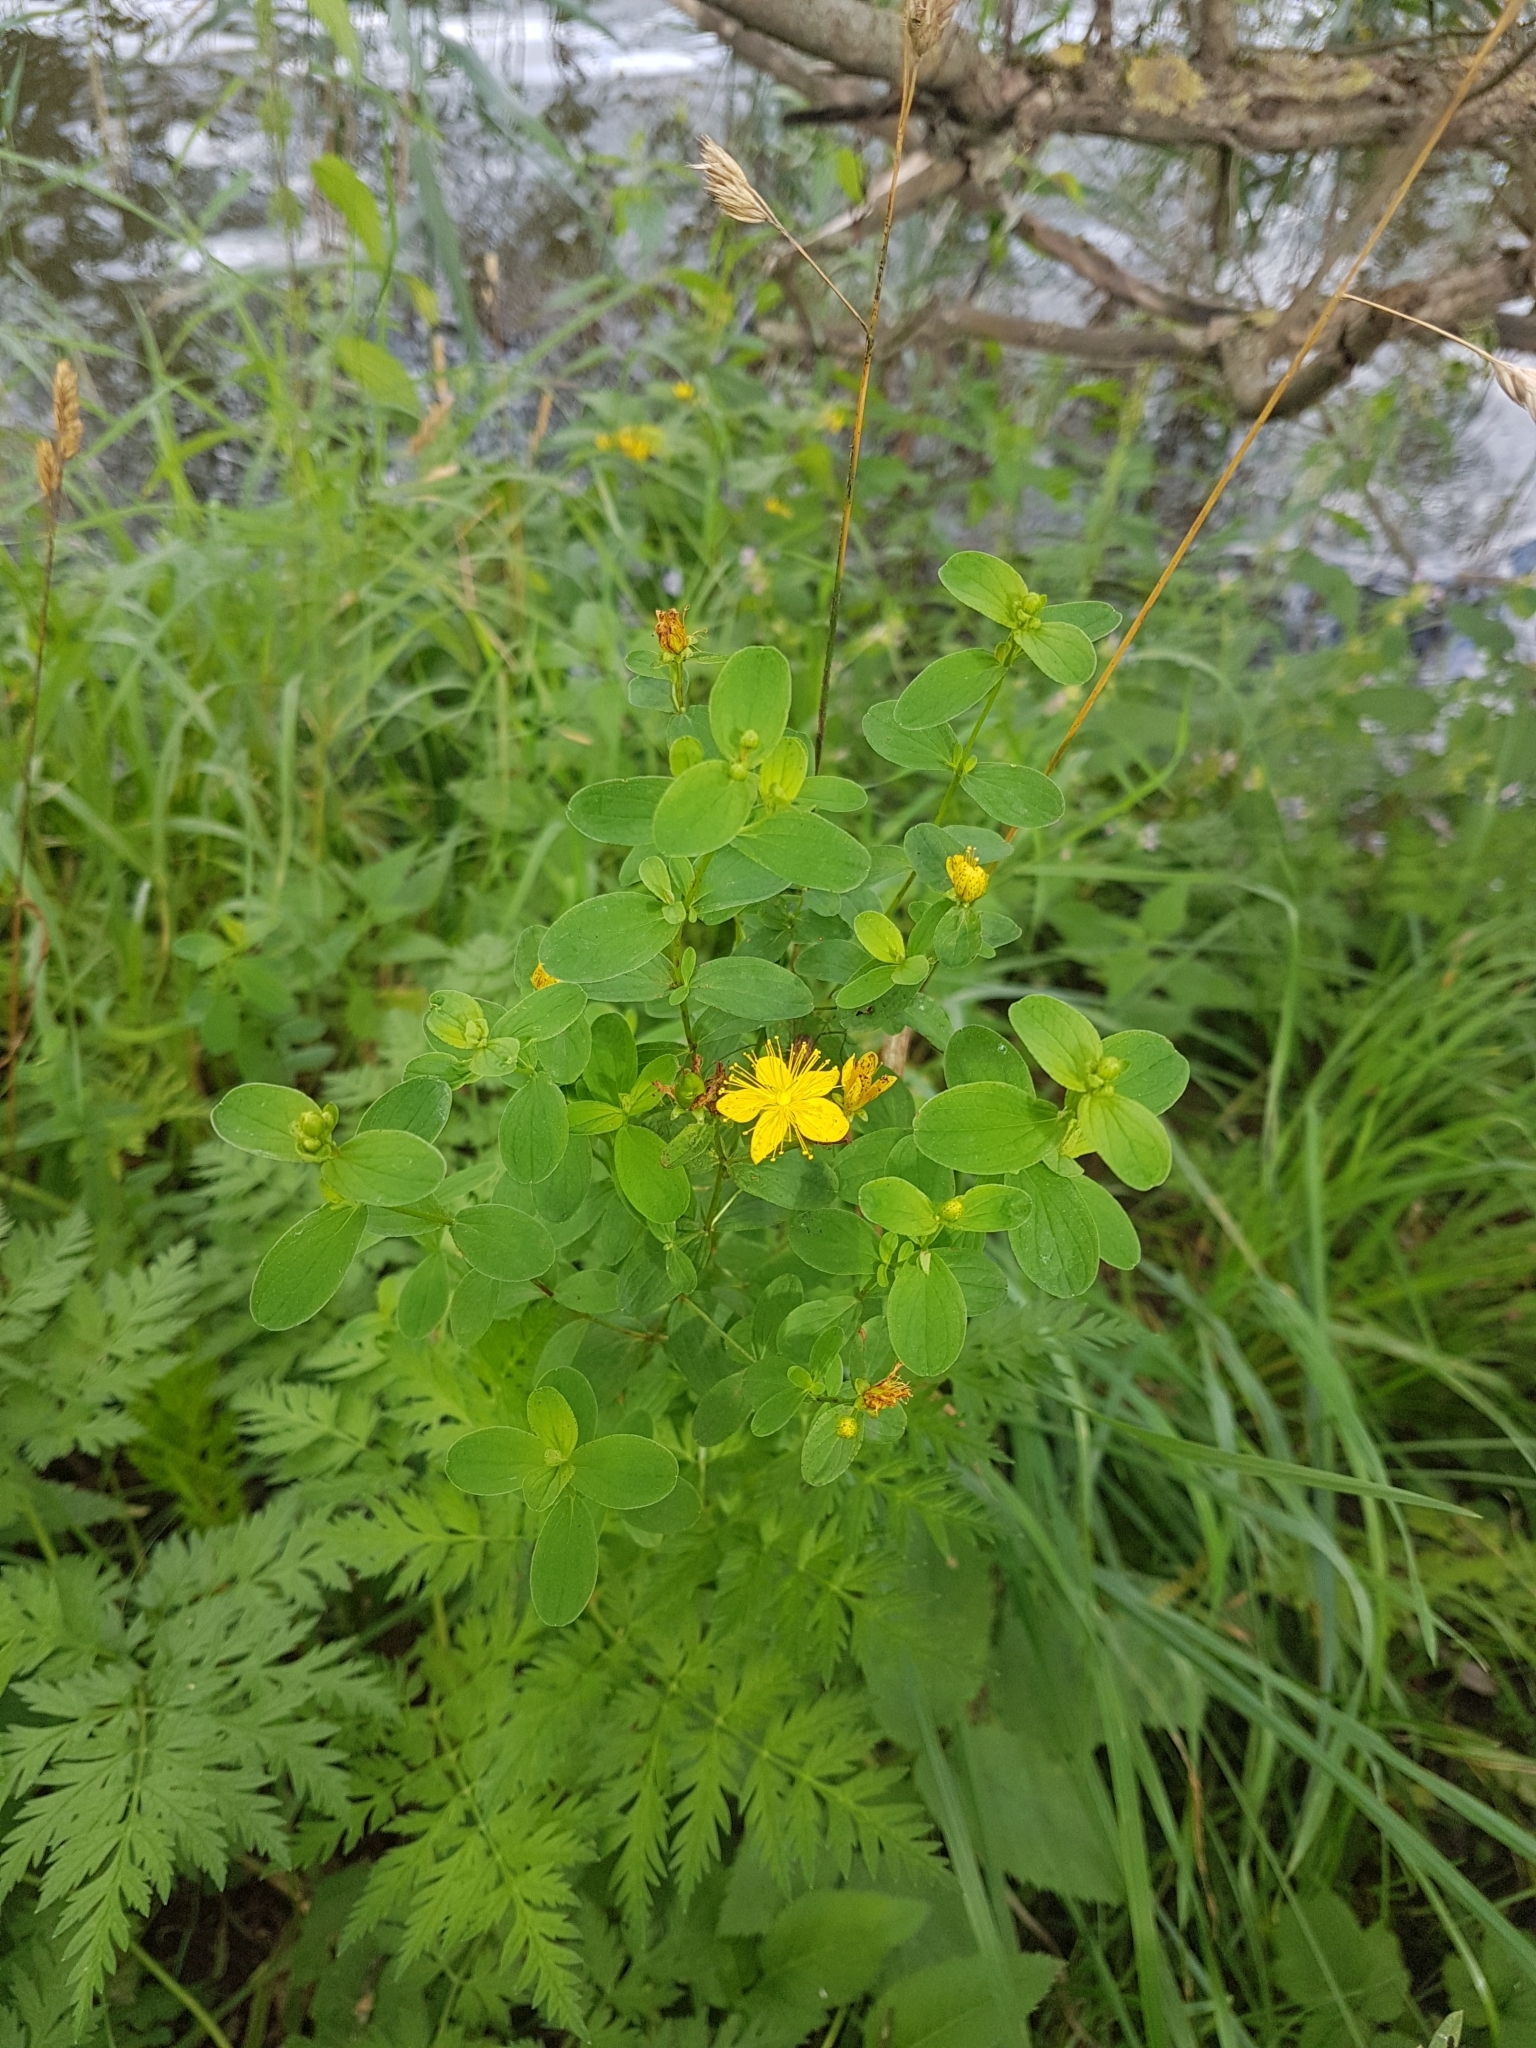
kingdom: Plantae
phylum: Tracheophyta
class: Magnoliopsida
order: Malpighiales
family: Hypericaceae
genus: Hypericum
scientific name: Hypericum maculatum
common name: Imperforate st. john's-wort
